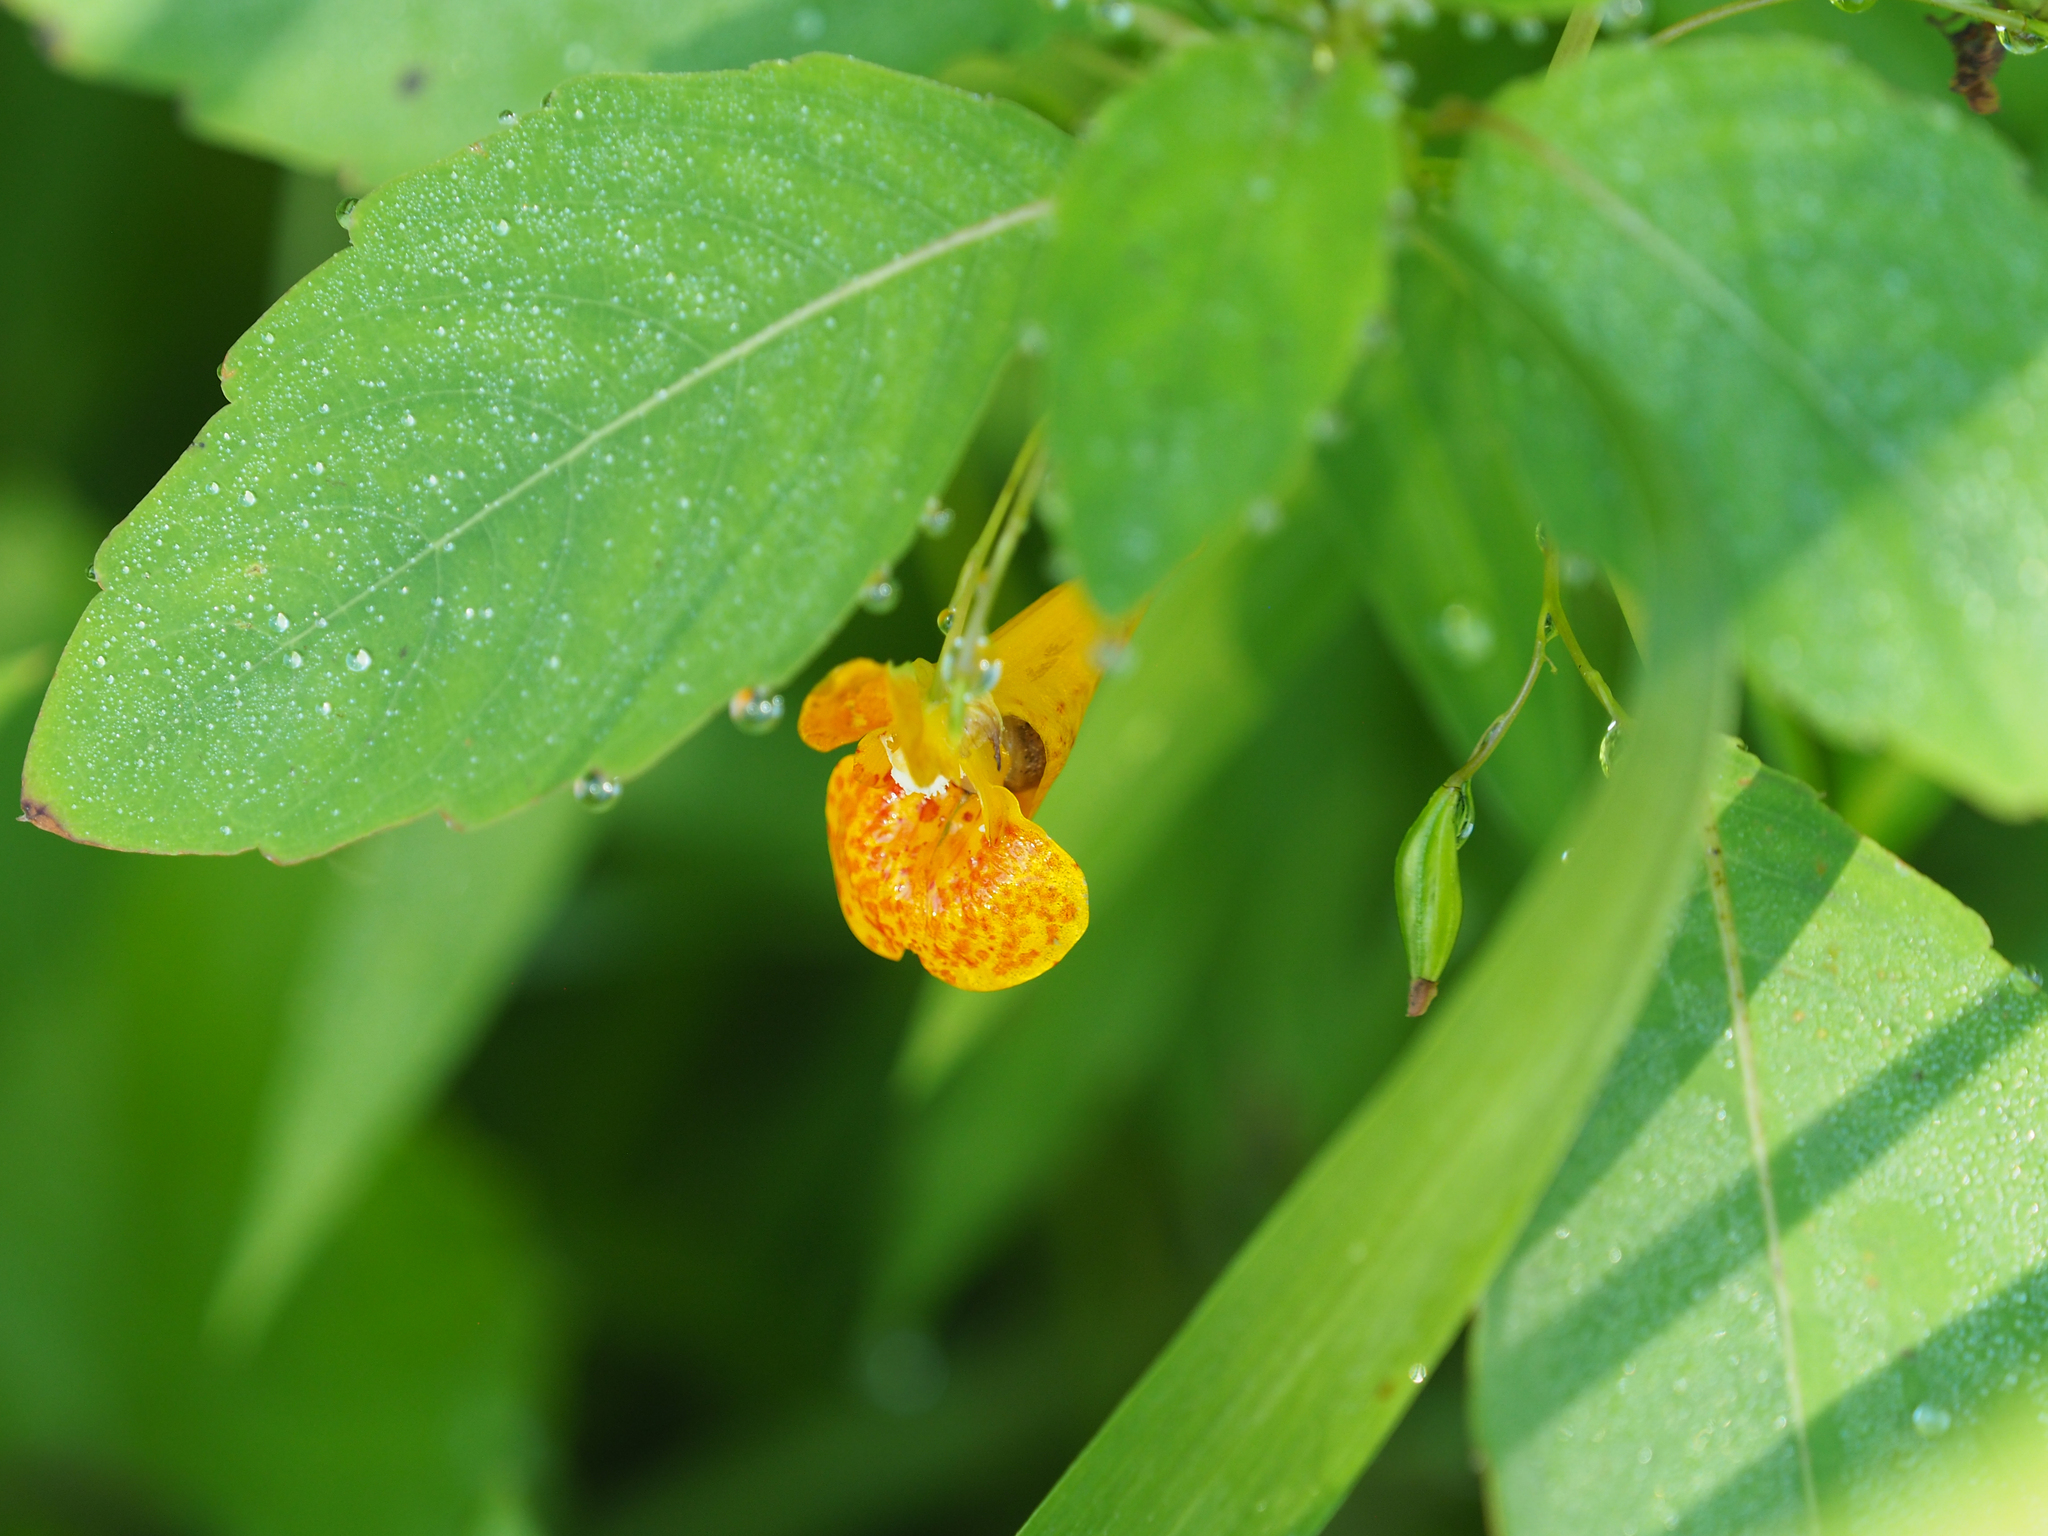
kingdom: Plantae
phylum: Tracheophyta
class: Magnoliopsida
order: Ericales
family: Balsaminaceae
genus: Impatiens
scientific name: Impatiens capensis
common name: Orange balsam
